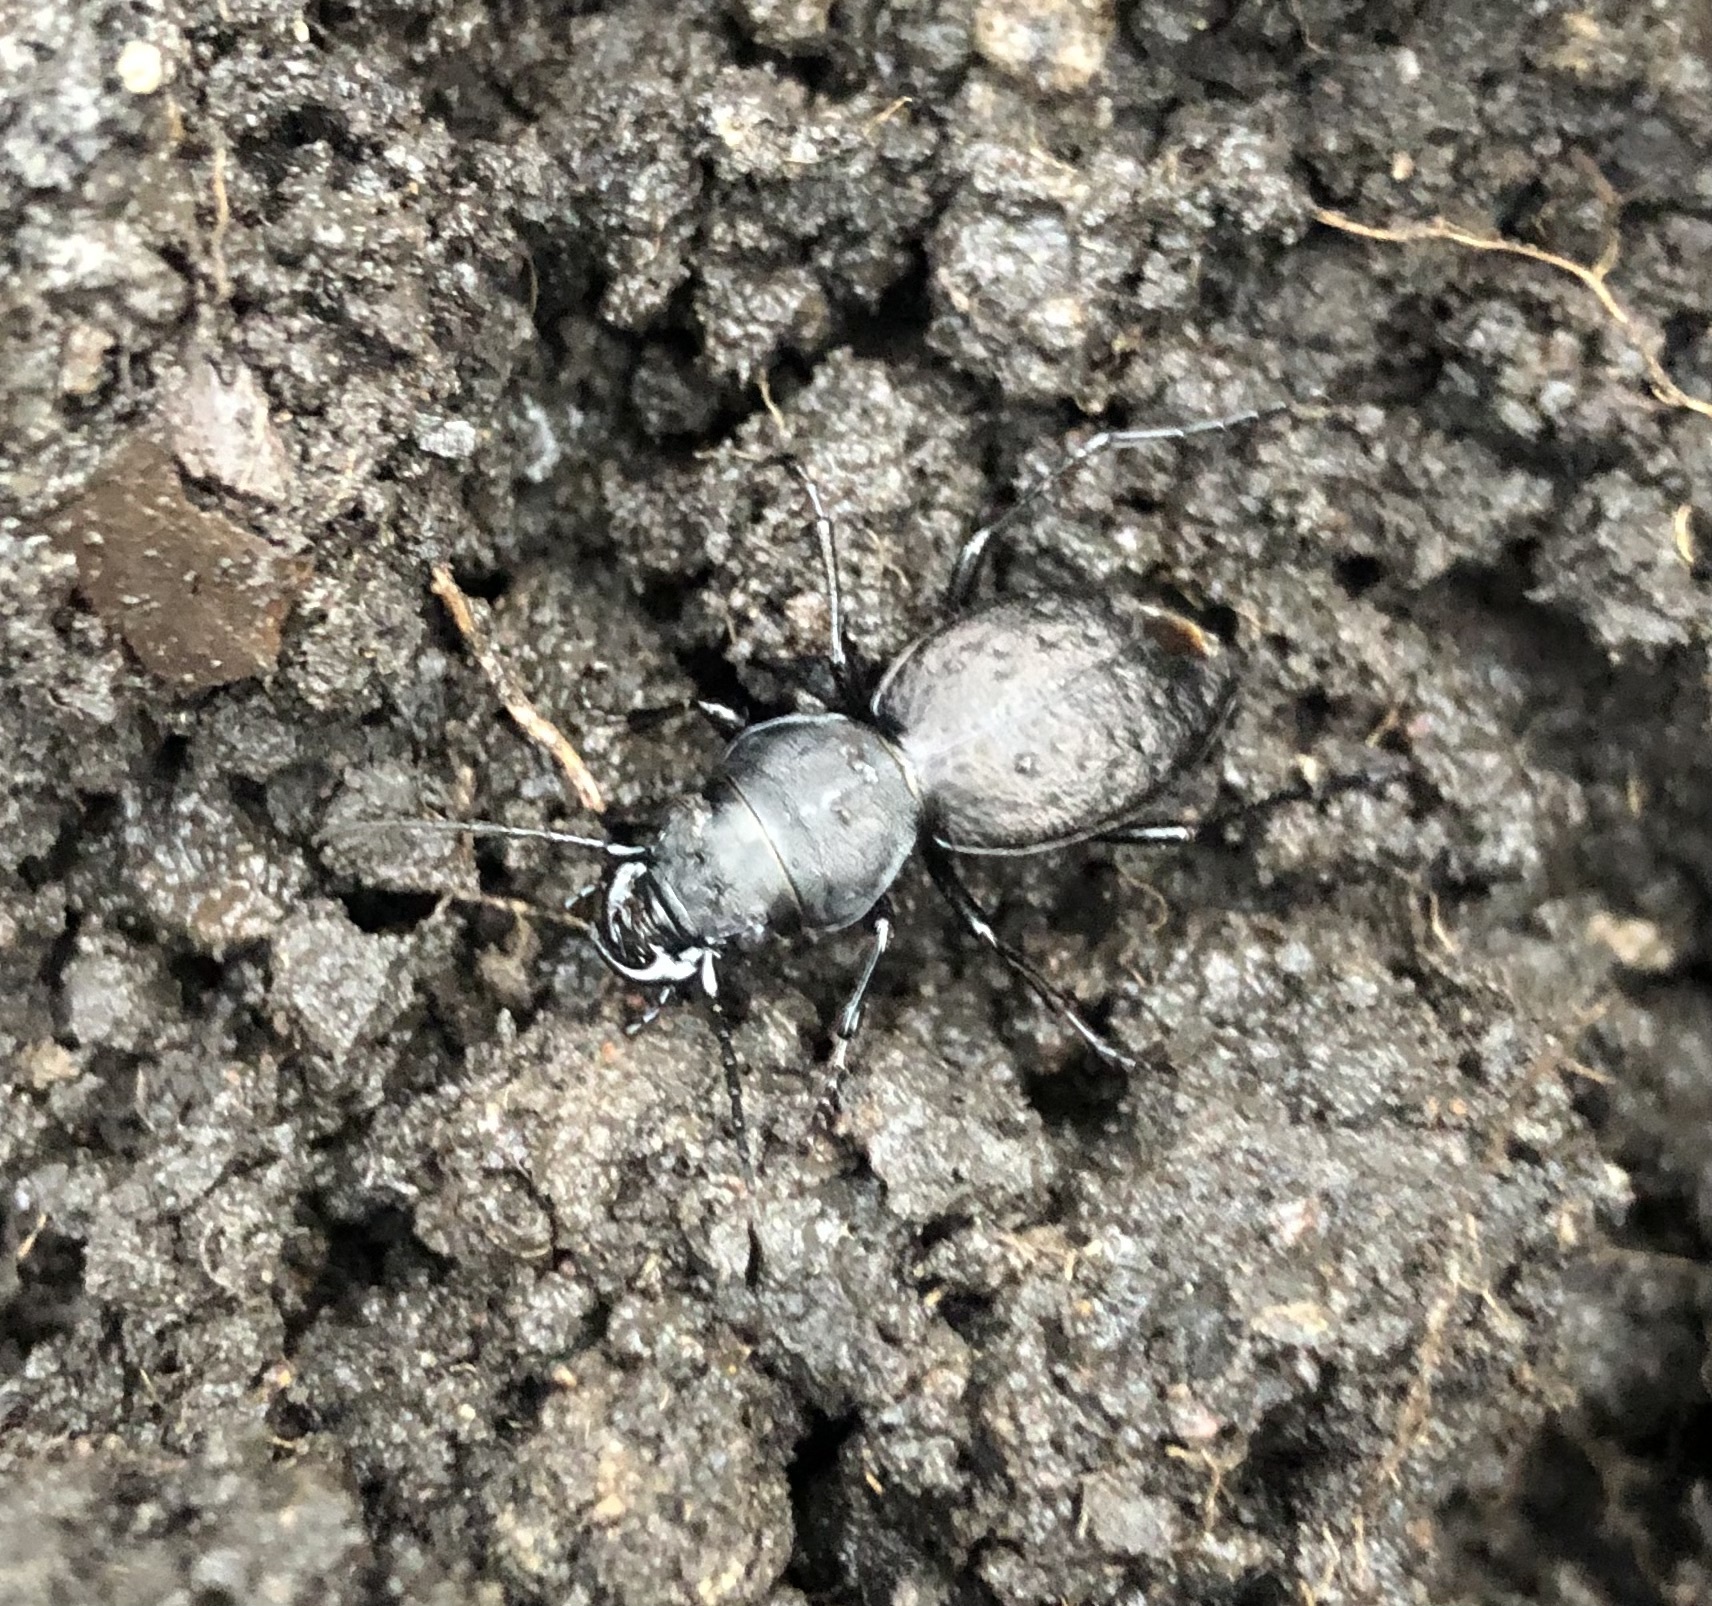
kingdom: Animalia
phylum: Arthropoda
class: Insecta
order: Coleoptera
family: Carabidae
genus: Omus
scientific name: Omus dejeanii
